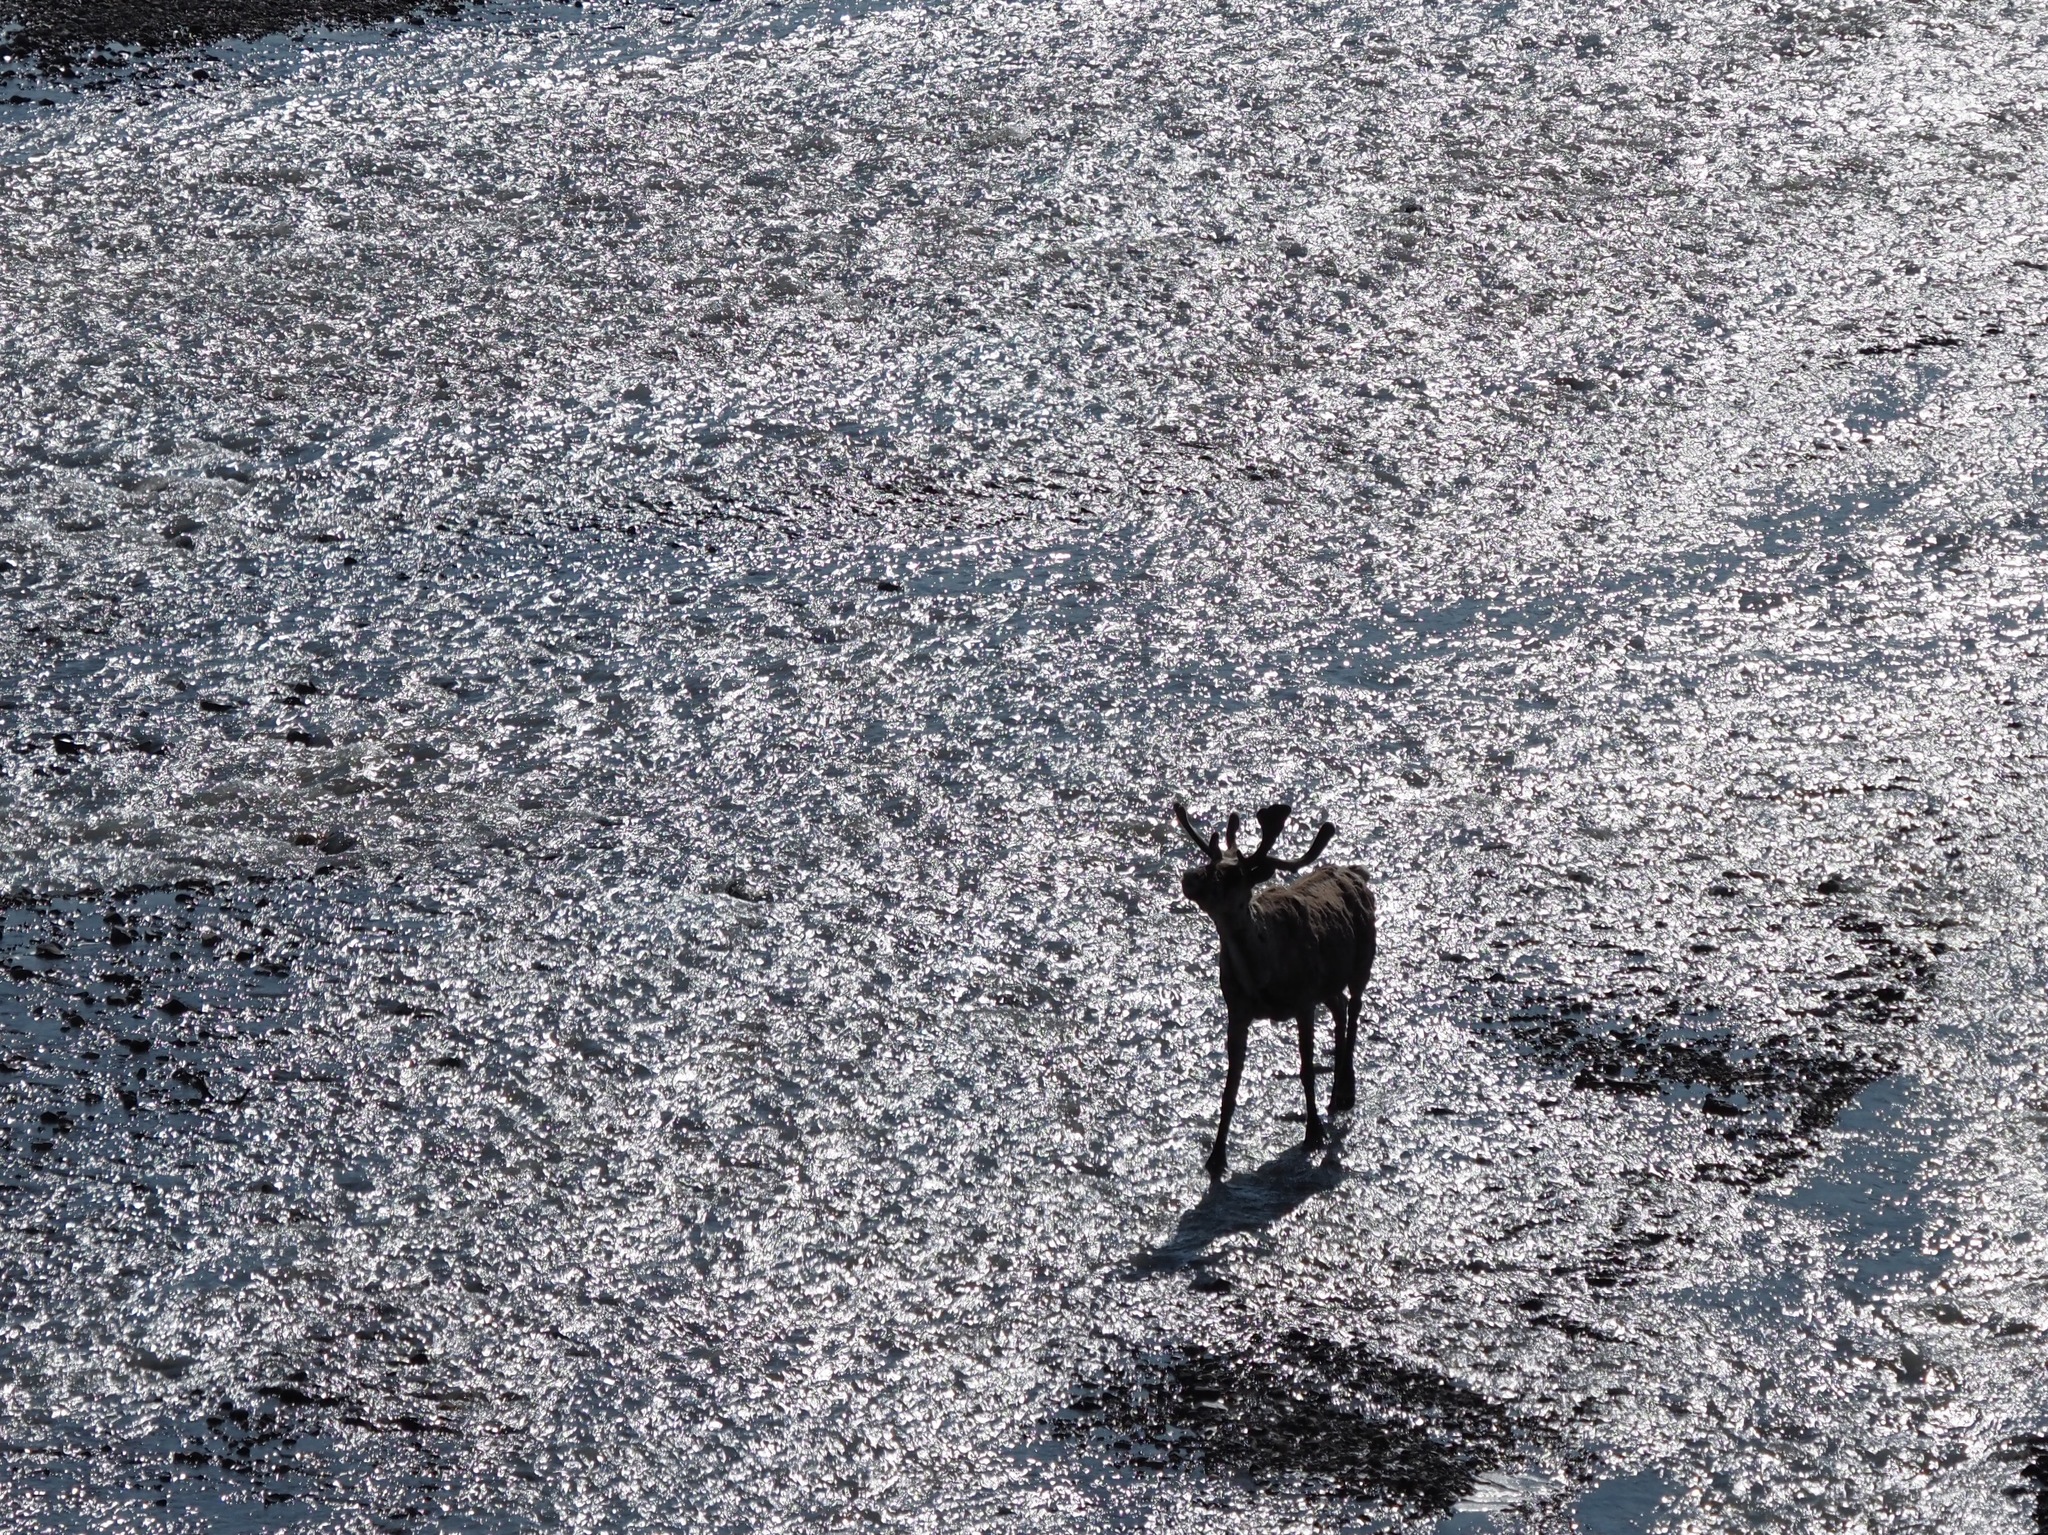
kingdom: Animalia
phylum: Chordata
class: Mammalia
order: Artiodactyla
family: Cervidae
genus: Rangifer
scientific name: Rangifer tarandus
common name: Reindeer
